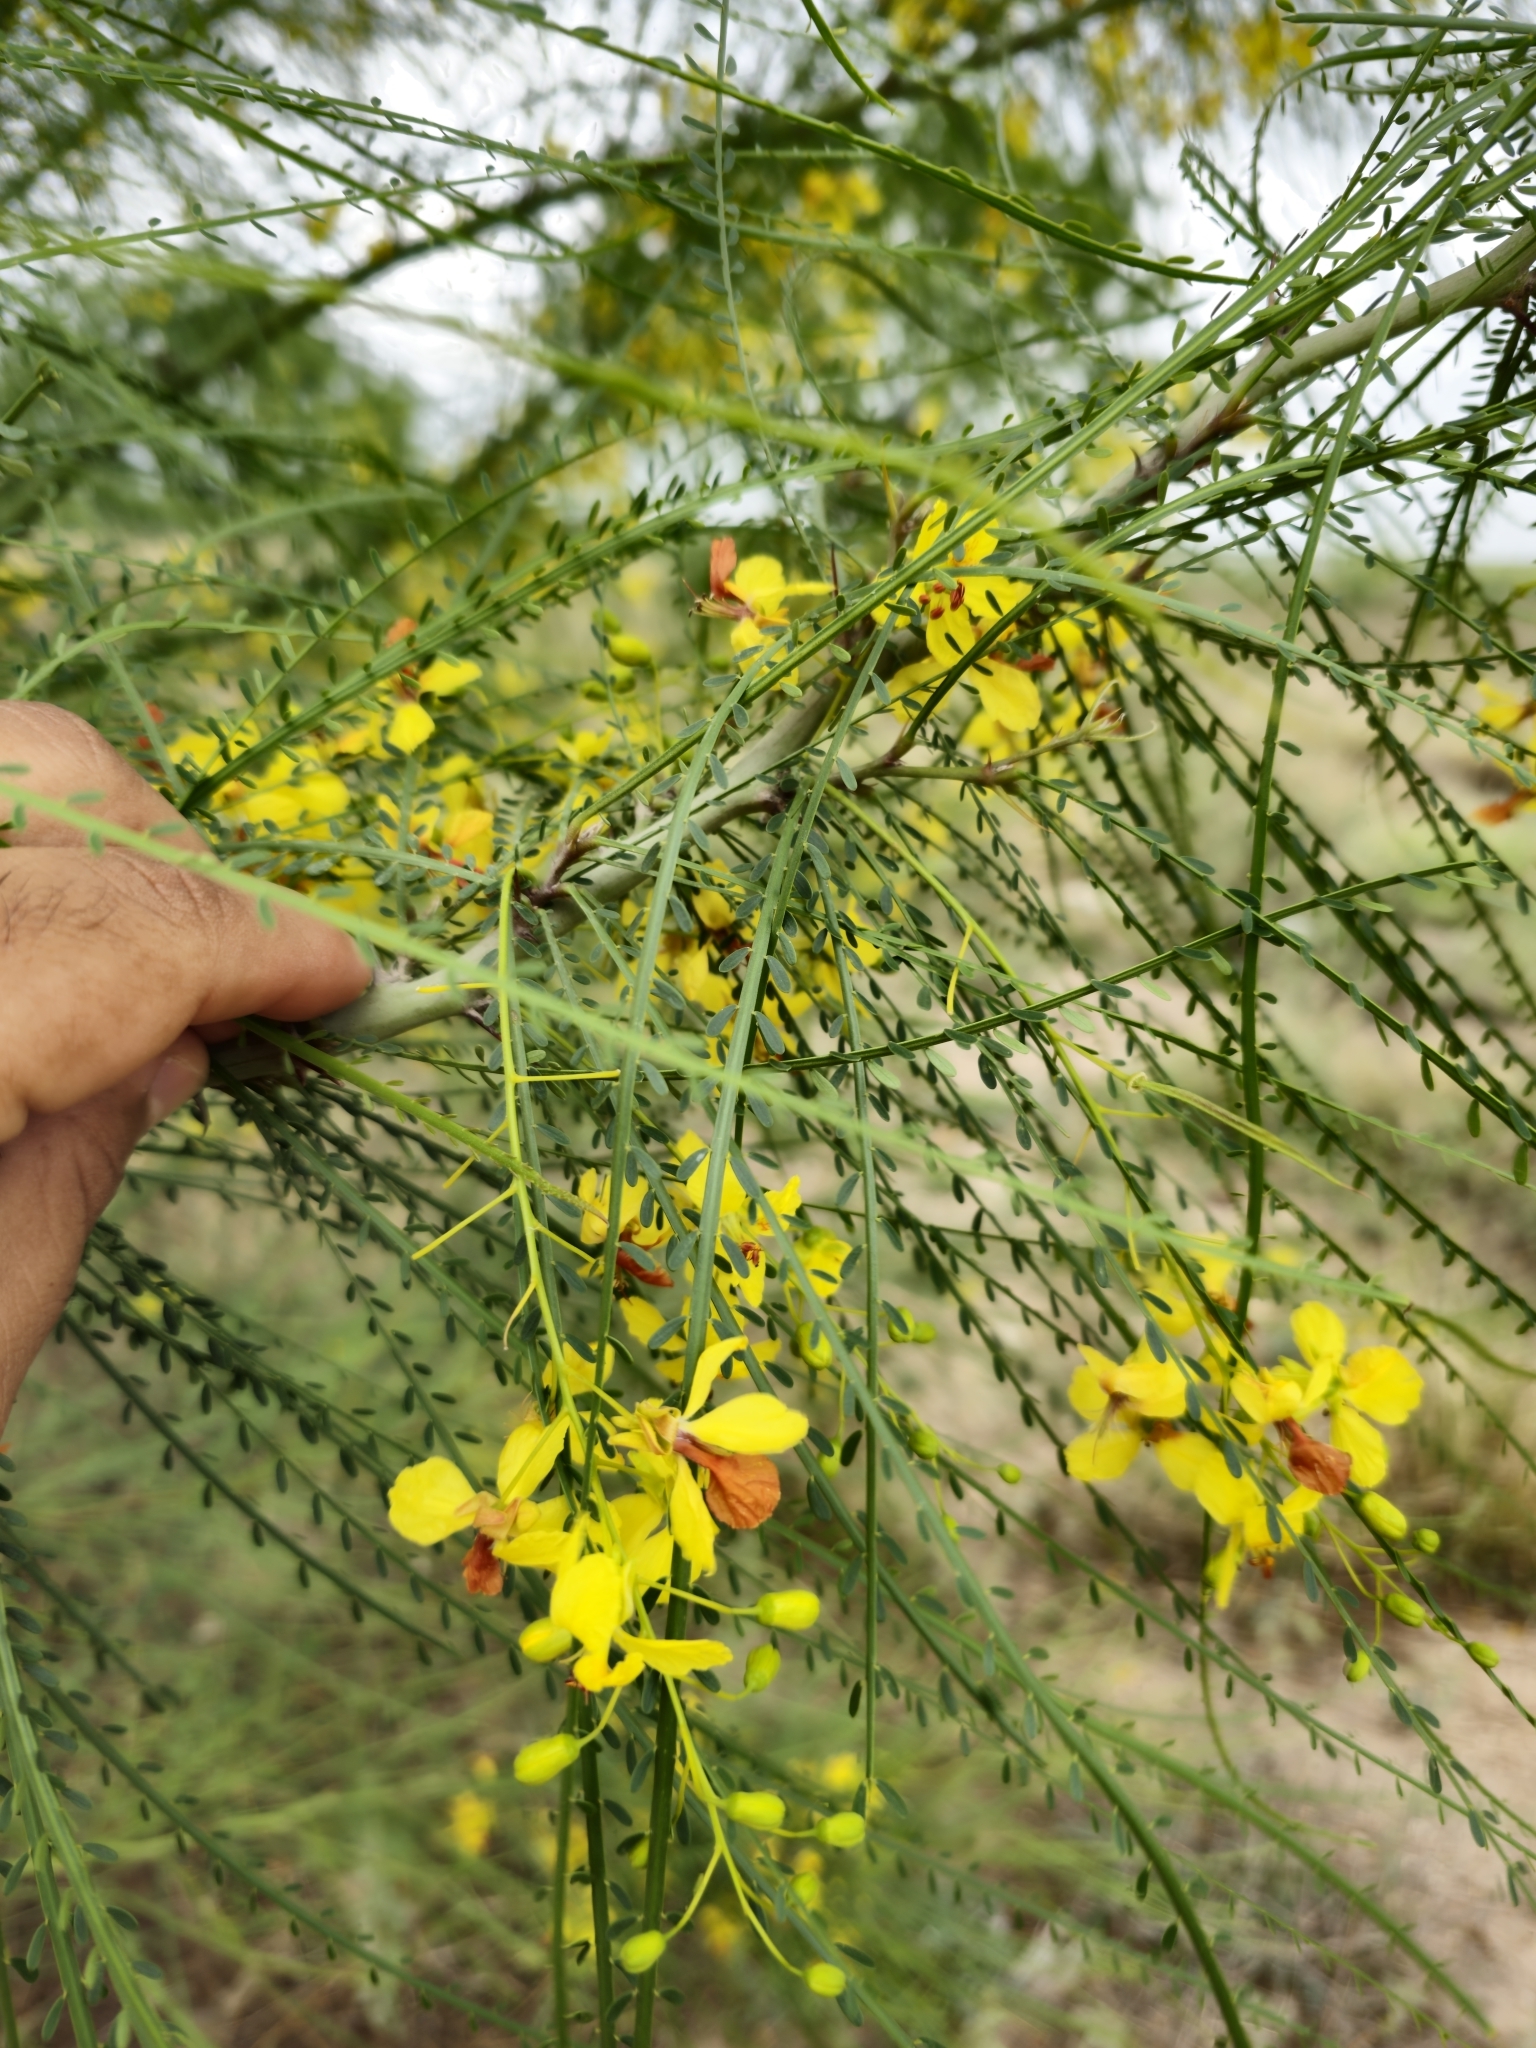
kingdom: Plantae
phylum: Tracheophyta
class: Magnoliopsida
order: Fabales
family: Fabaceae
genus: Parkinsonia
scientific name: Parkinsonia aculeata
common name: Jerusalem thorn
